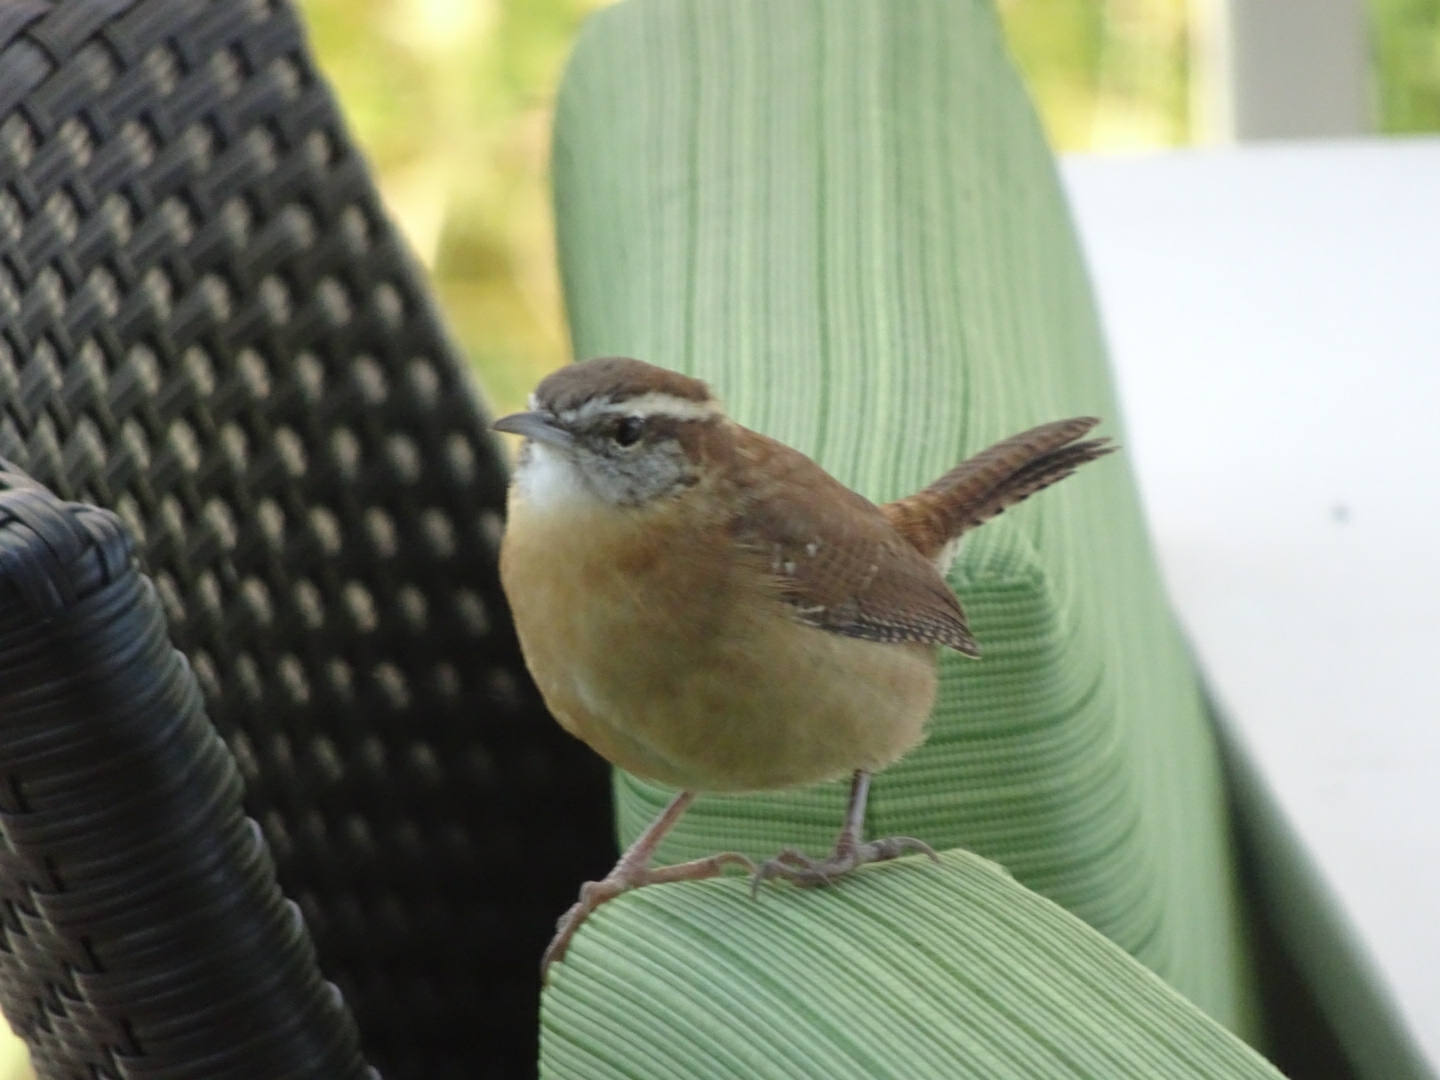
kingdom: Animalia
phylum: Chordata
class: Aves
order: Passeriformes
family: Troglodytidae
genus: Thryothorus
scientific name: Thryothorus ludovicianus
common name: Carolina wren
